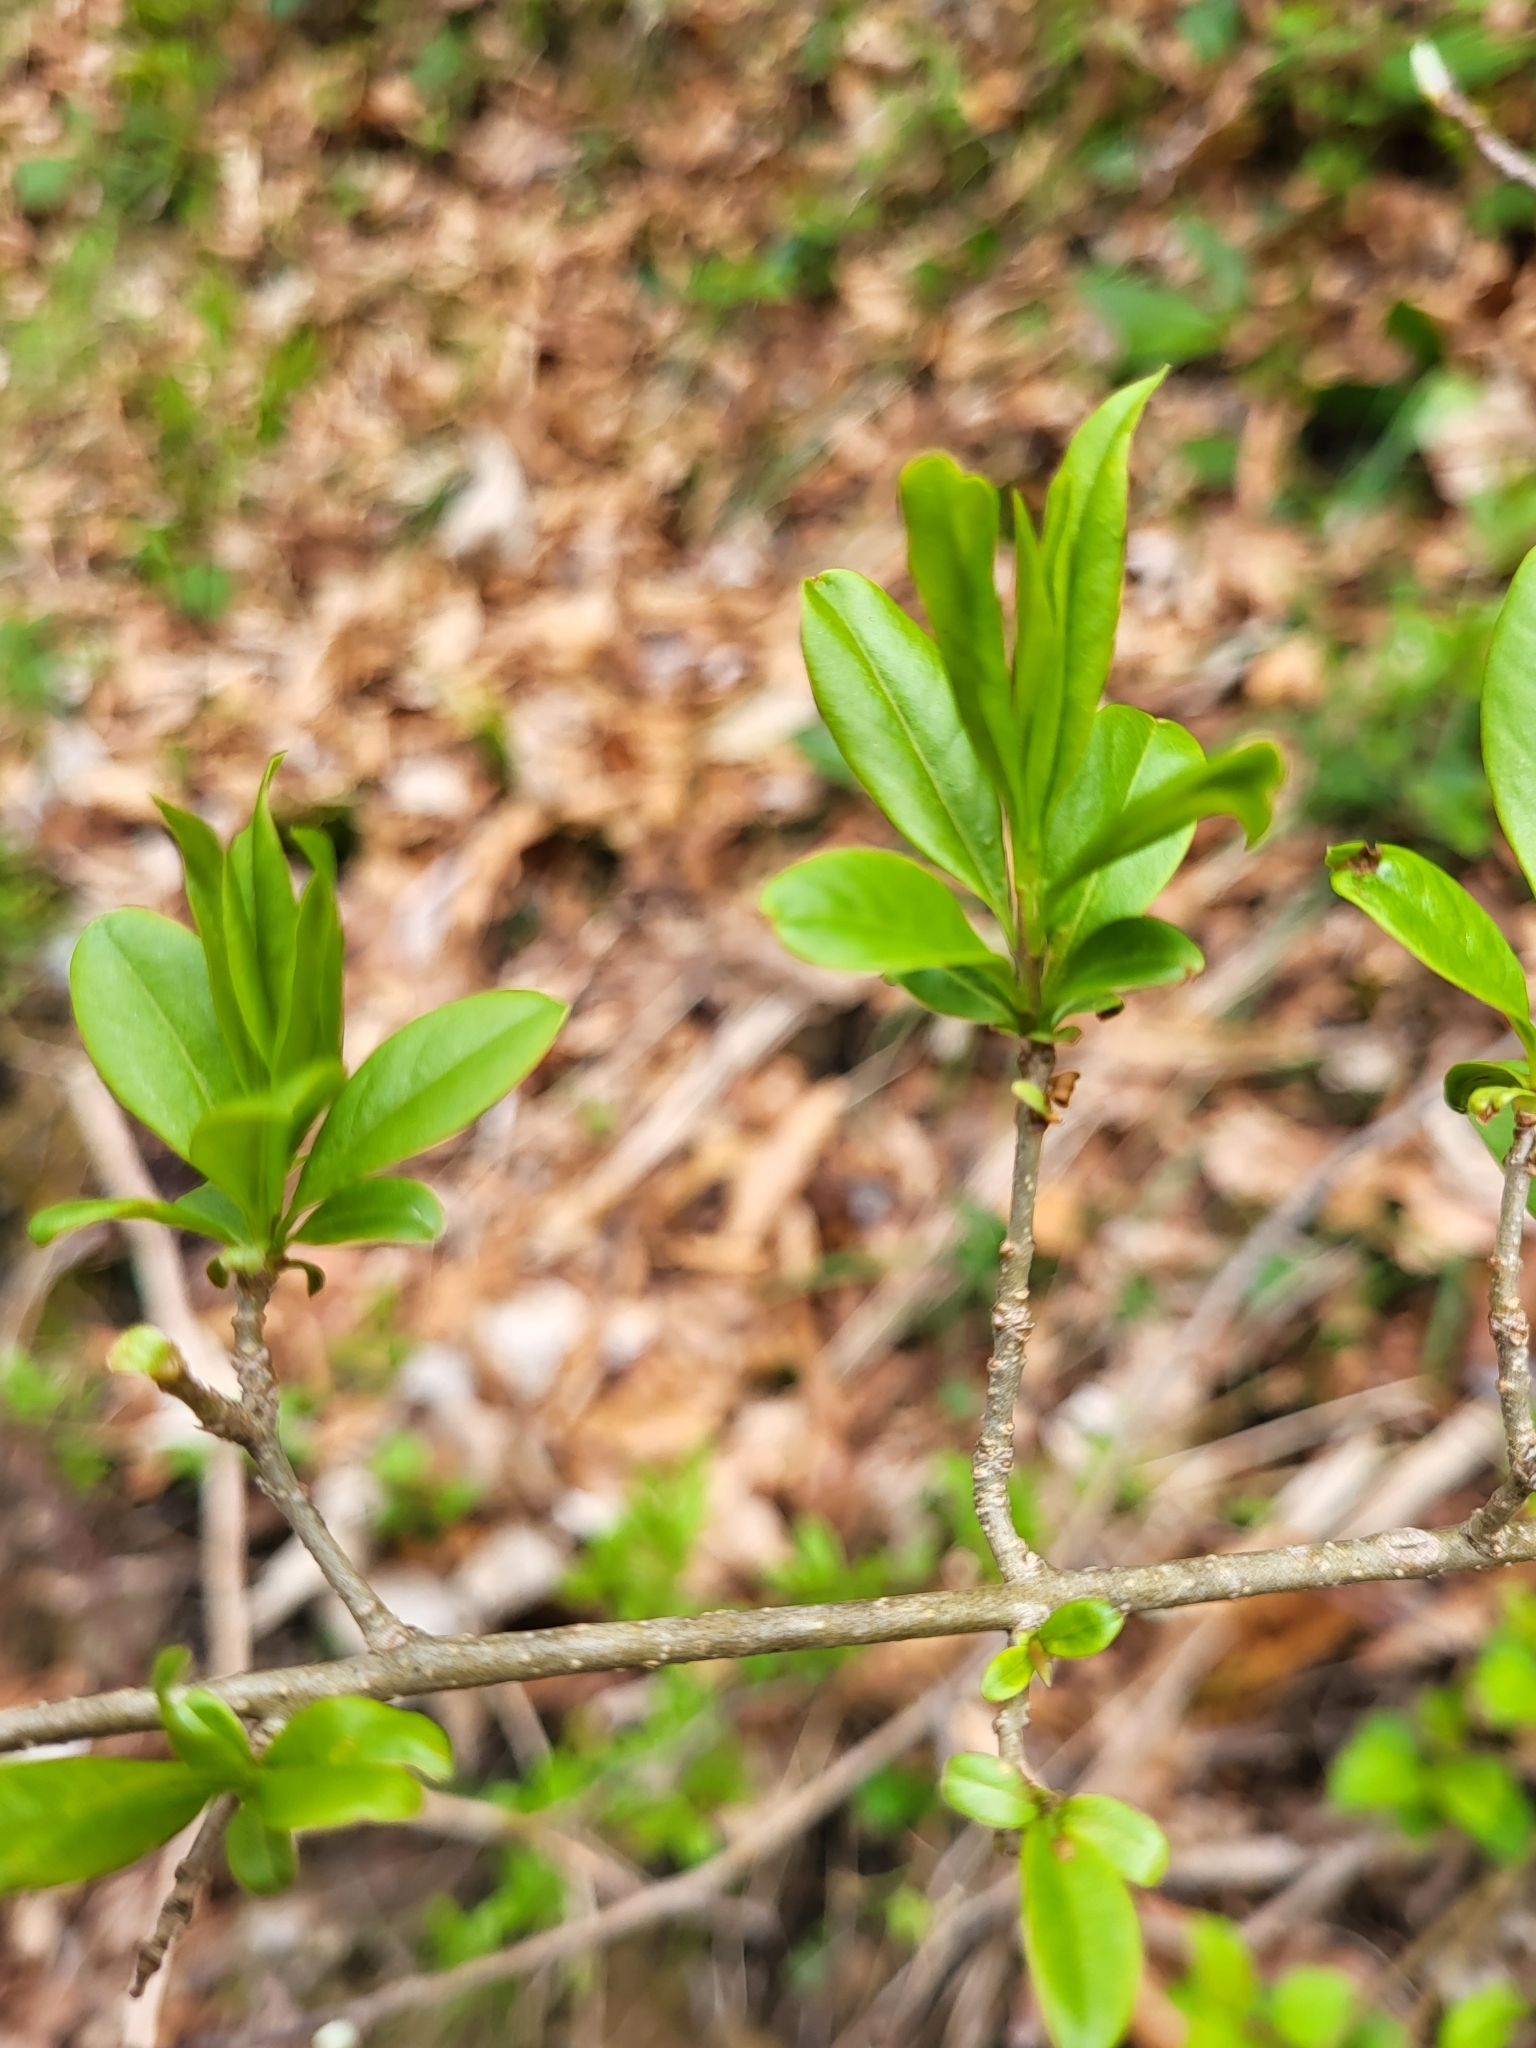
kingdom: Plantae
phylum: Tracheophyta
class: Magnoliopsida
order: Lamiales
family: Oleaceae
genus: Ligustrum
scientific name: Ligustrum vulgare
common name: Wild privet
